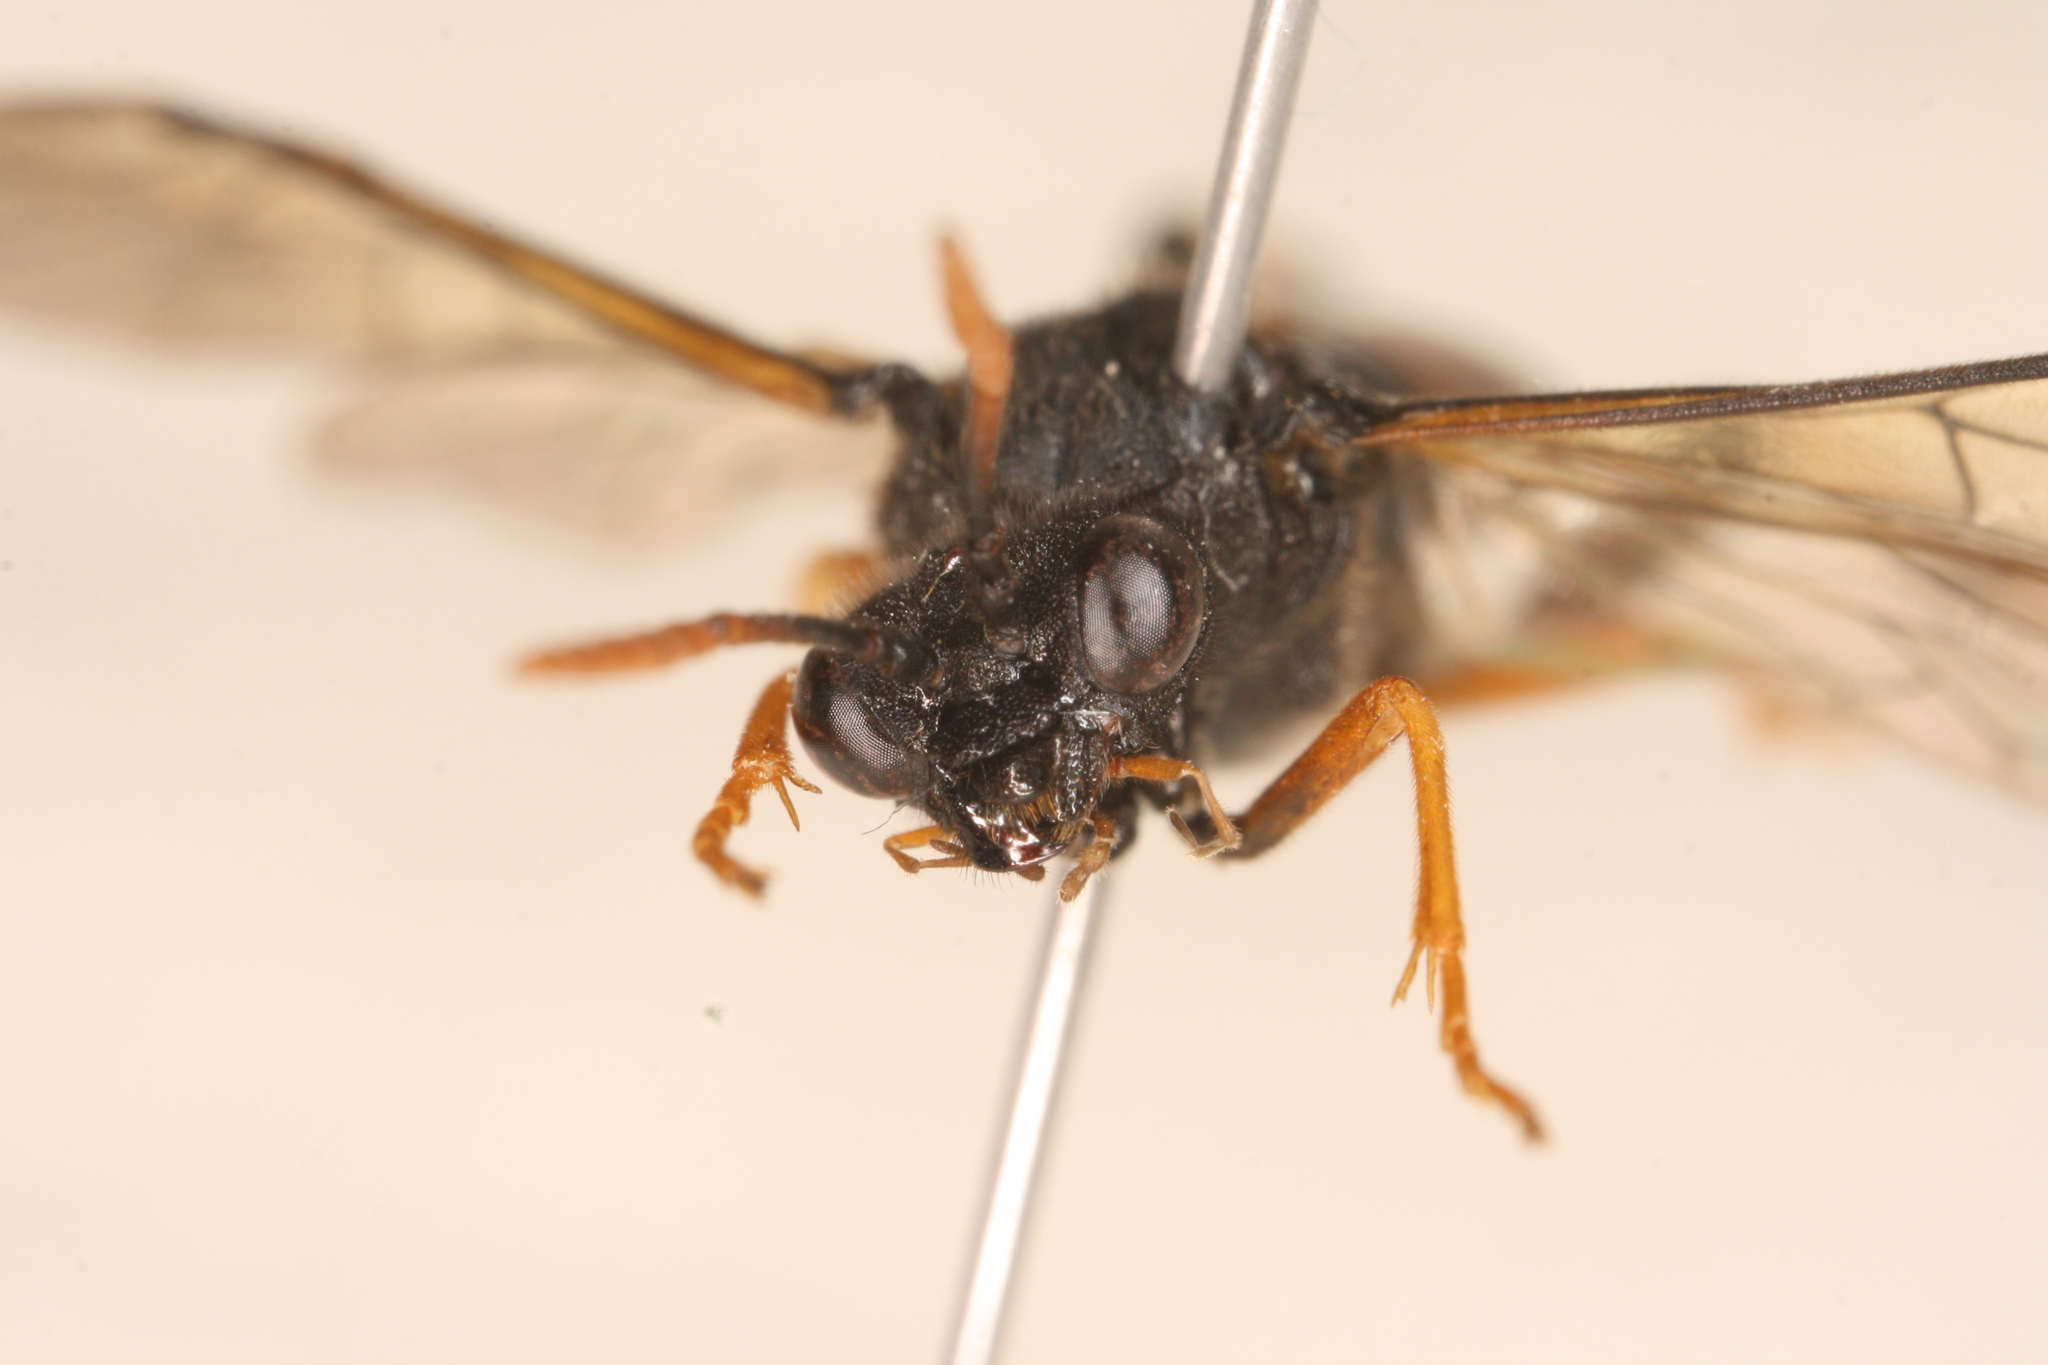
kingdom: Animalia
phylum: Arthropoda
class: Insecta
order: Hymenoptera
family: Tenthredinidae
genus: Siobla
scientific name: Siobla sturmii
